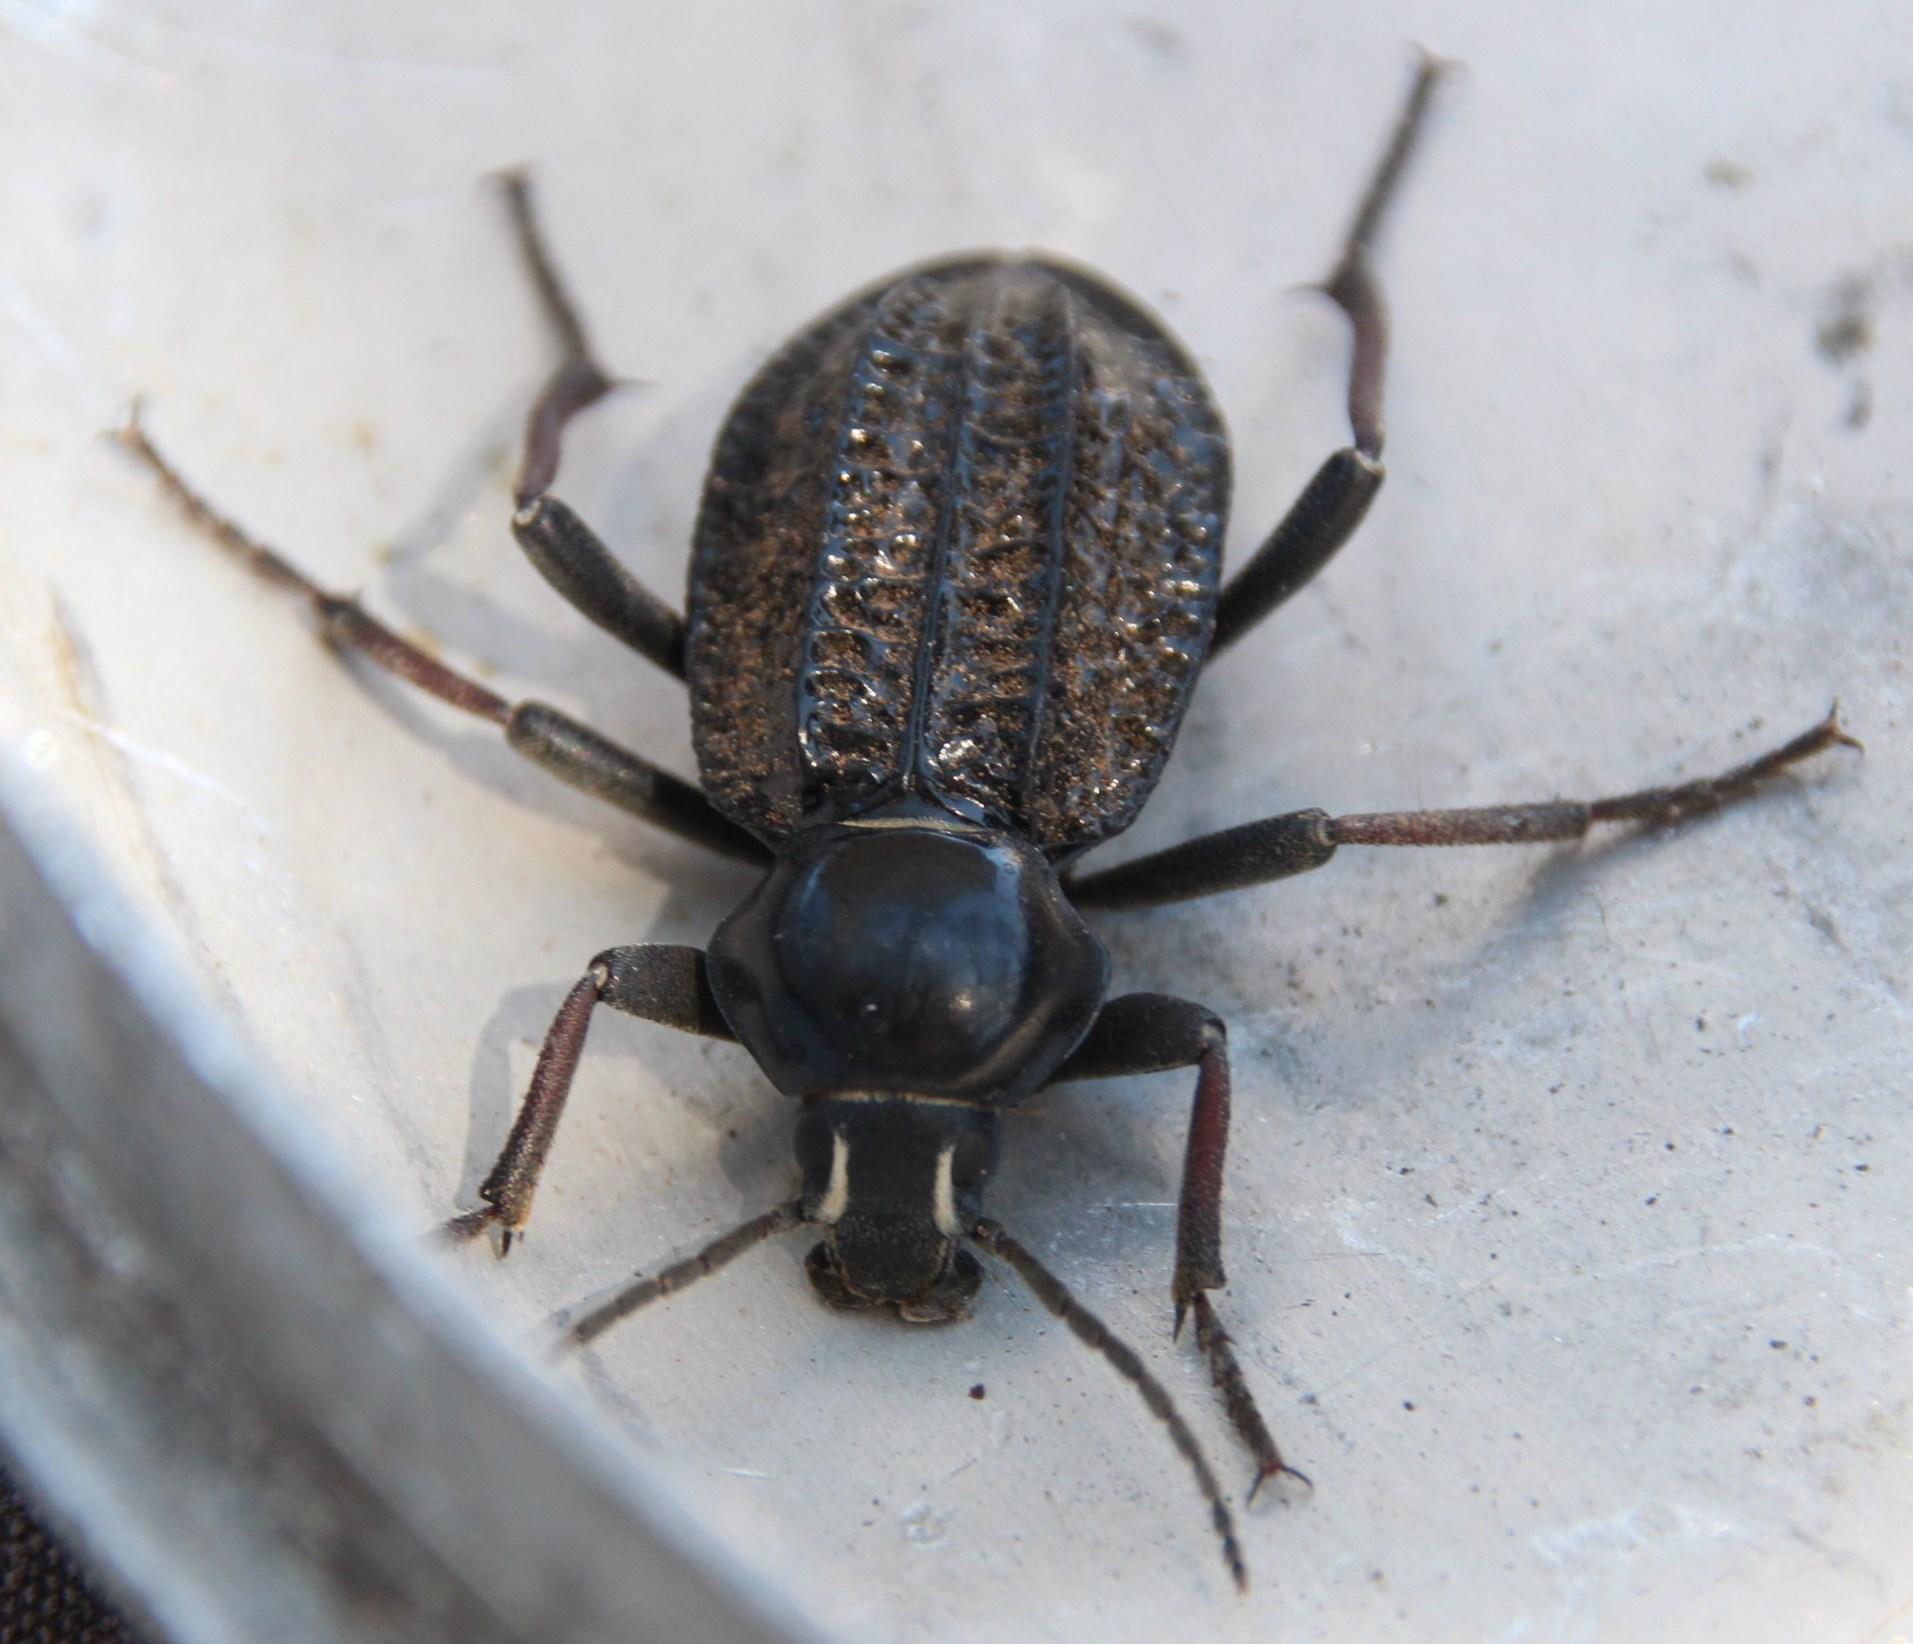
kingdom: Animalia
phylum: Arthropoda
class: Insecta
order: Coleoptera
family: Tenebrionidae
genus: Somaticus
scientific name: Somaticus rugosus
